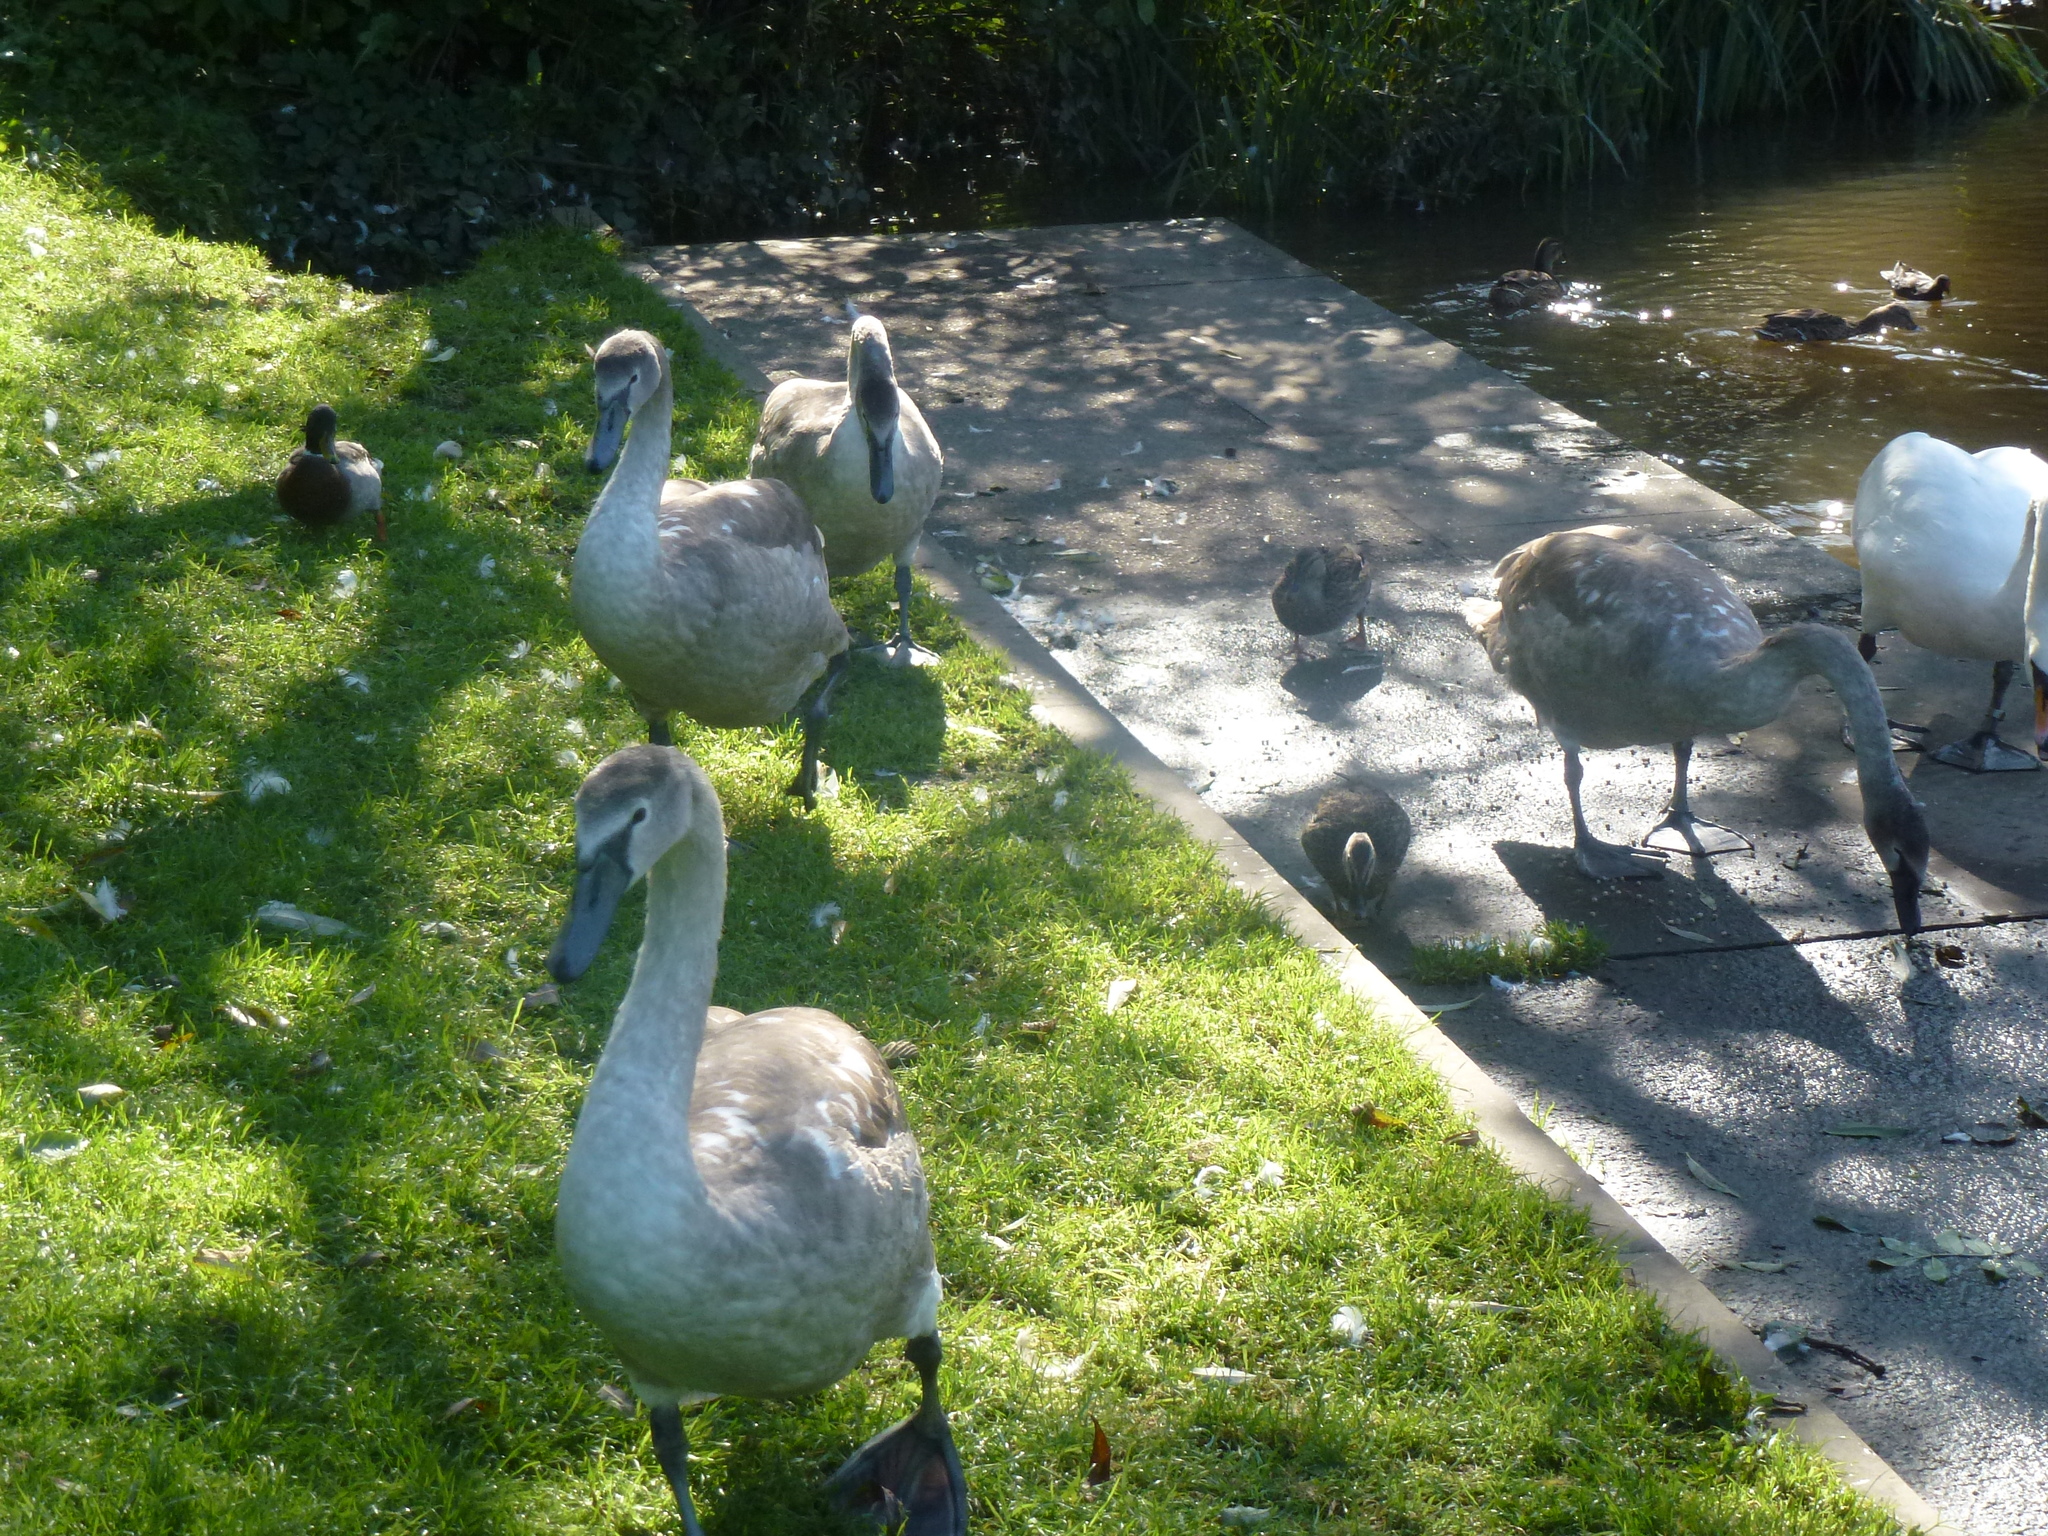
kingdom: Animalia
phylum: Chordata
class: Aves
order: Anseriformes
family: Anatidae
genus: Cygnus
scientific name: Cygnus olor
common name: Mute swan
